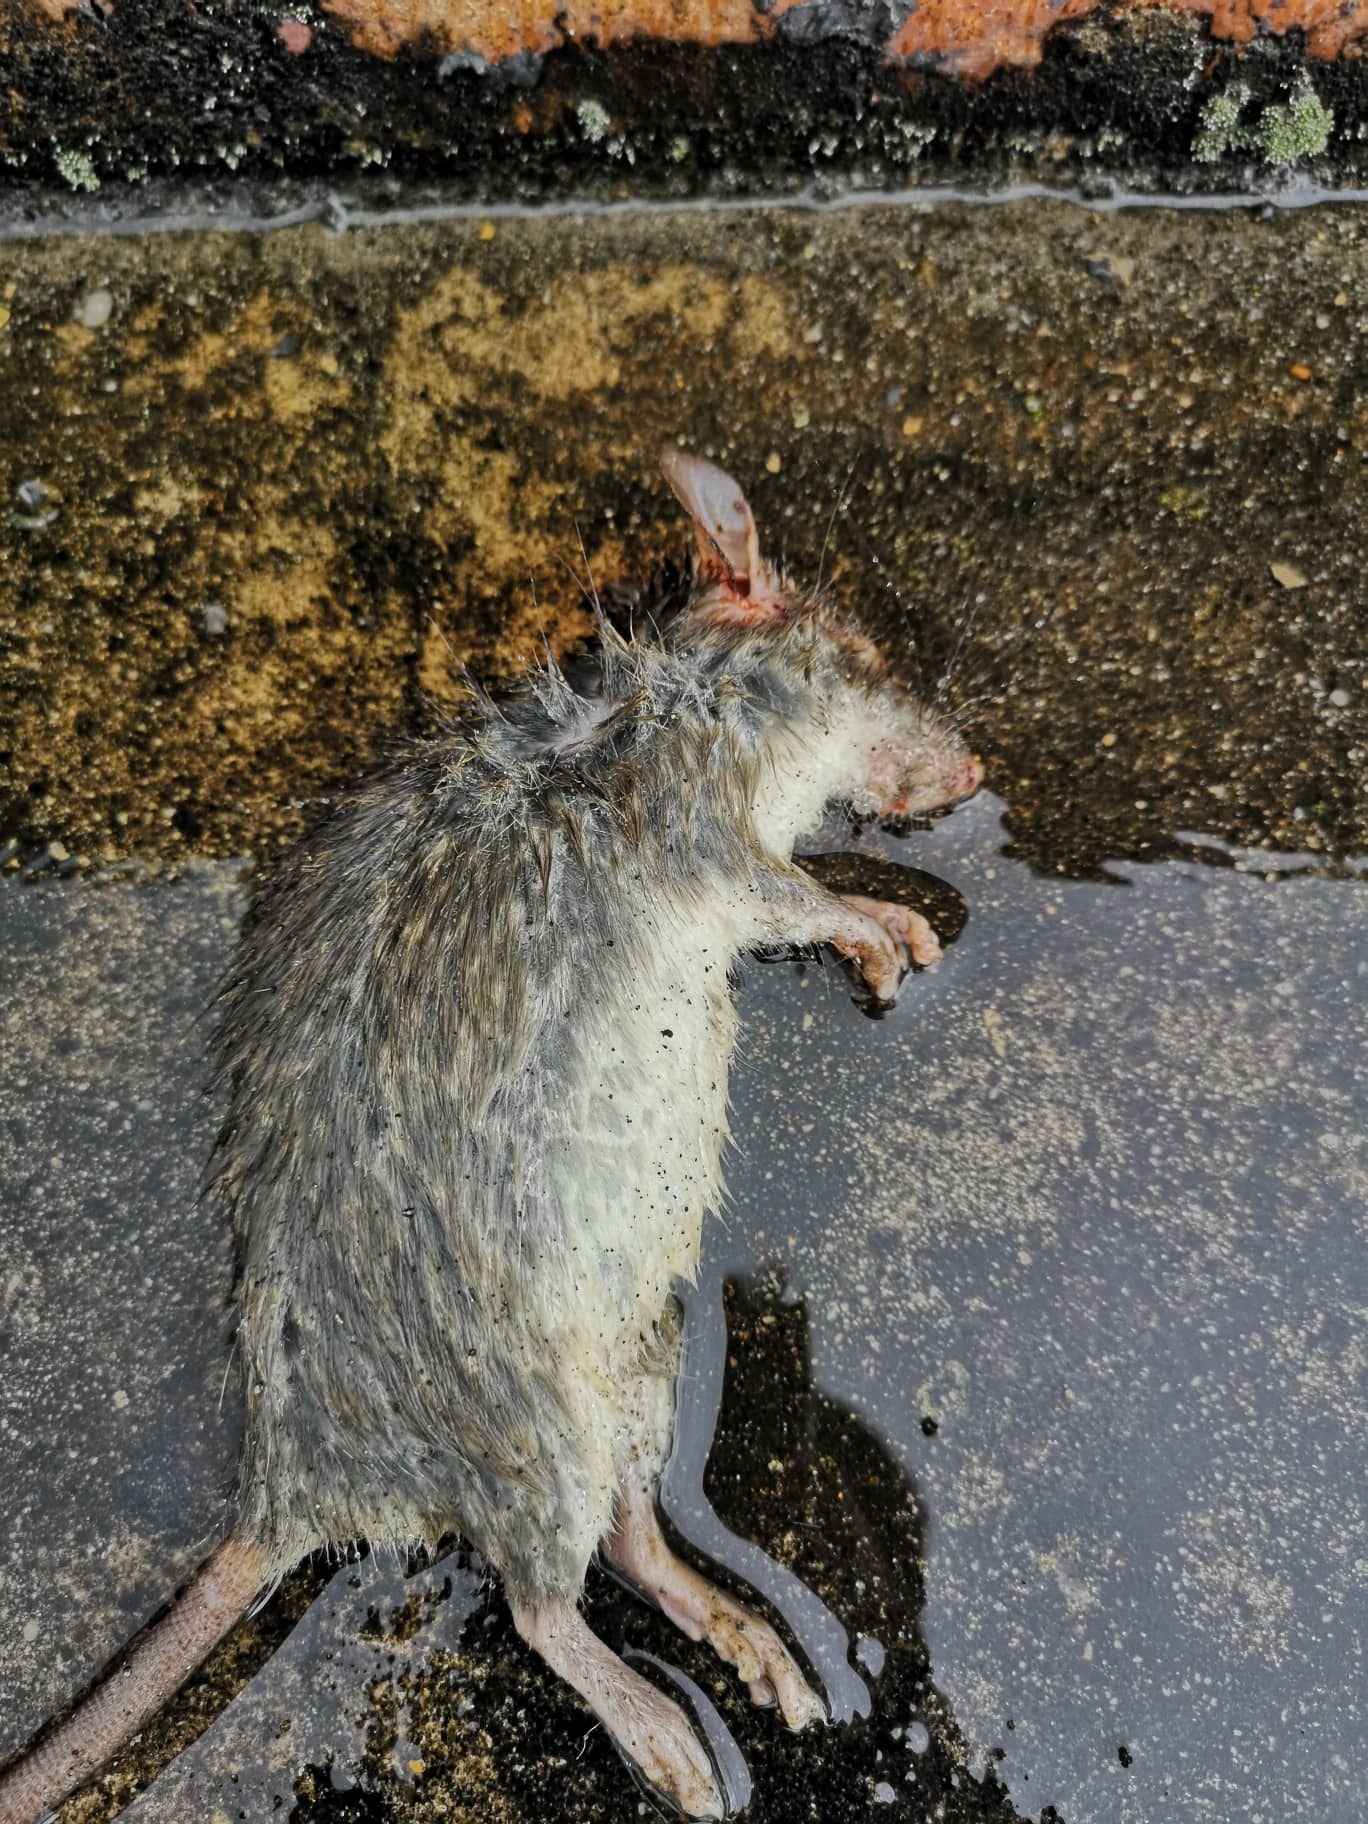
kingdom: Animalia
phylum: Chordata
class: Mammalia
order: Rodentia
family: Muridae
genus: Rattus
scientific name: Rattus rattus
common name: Black rat
